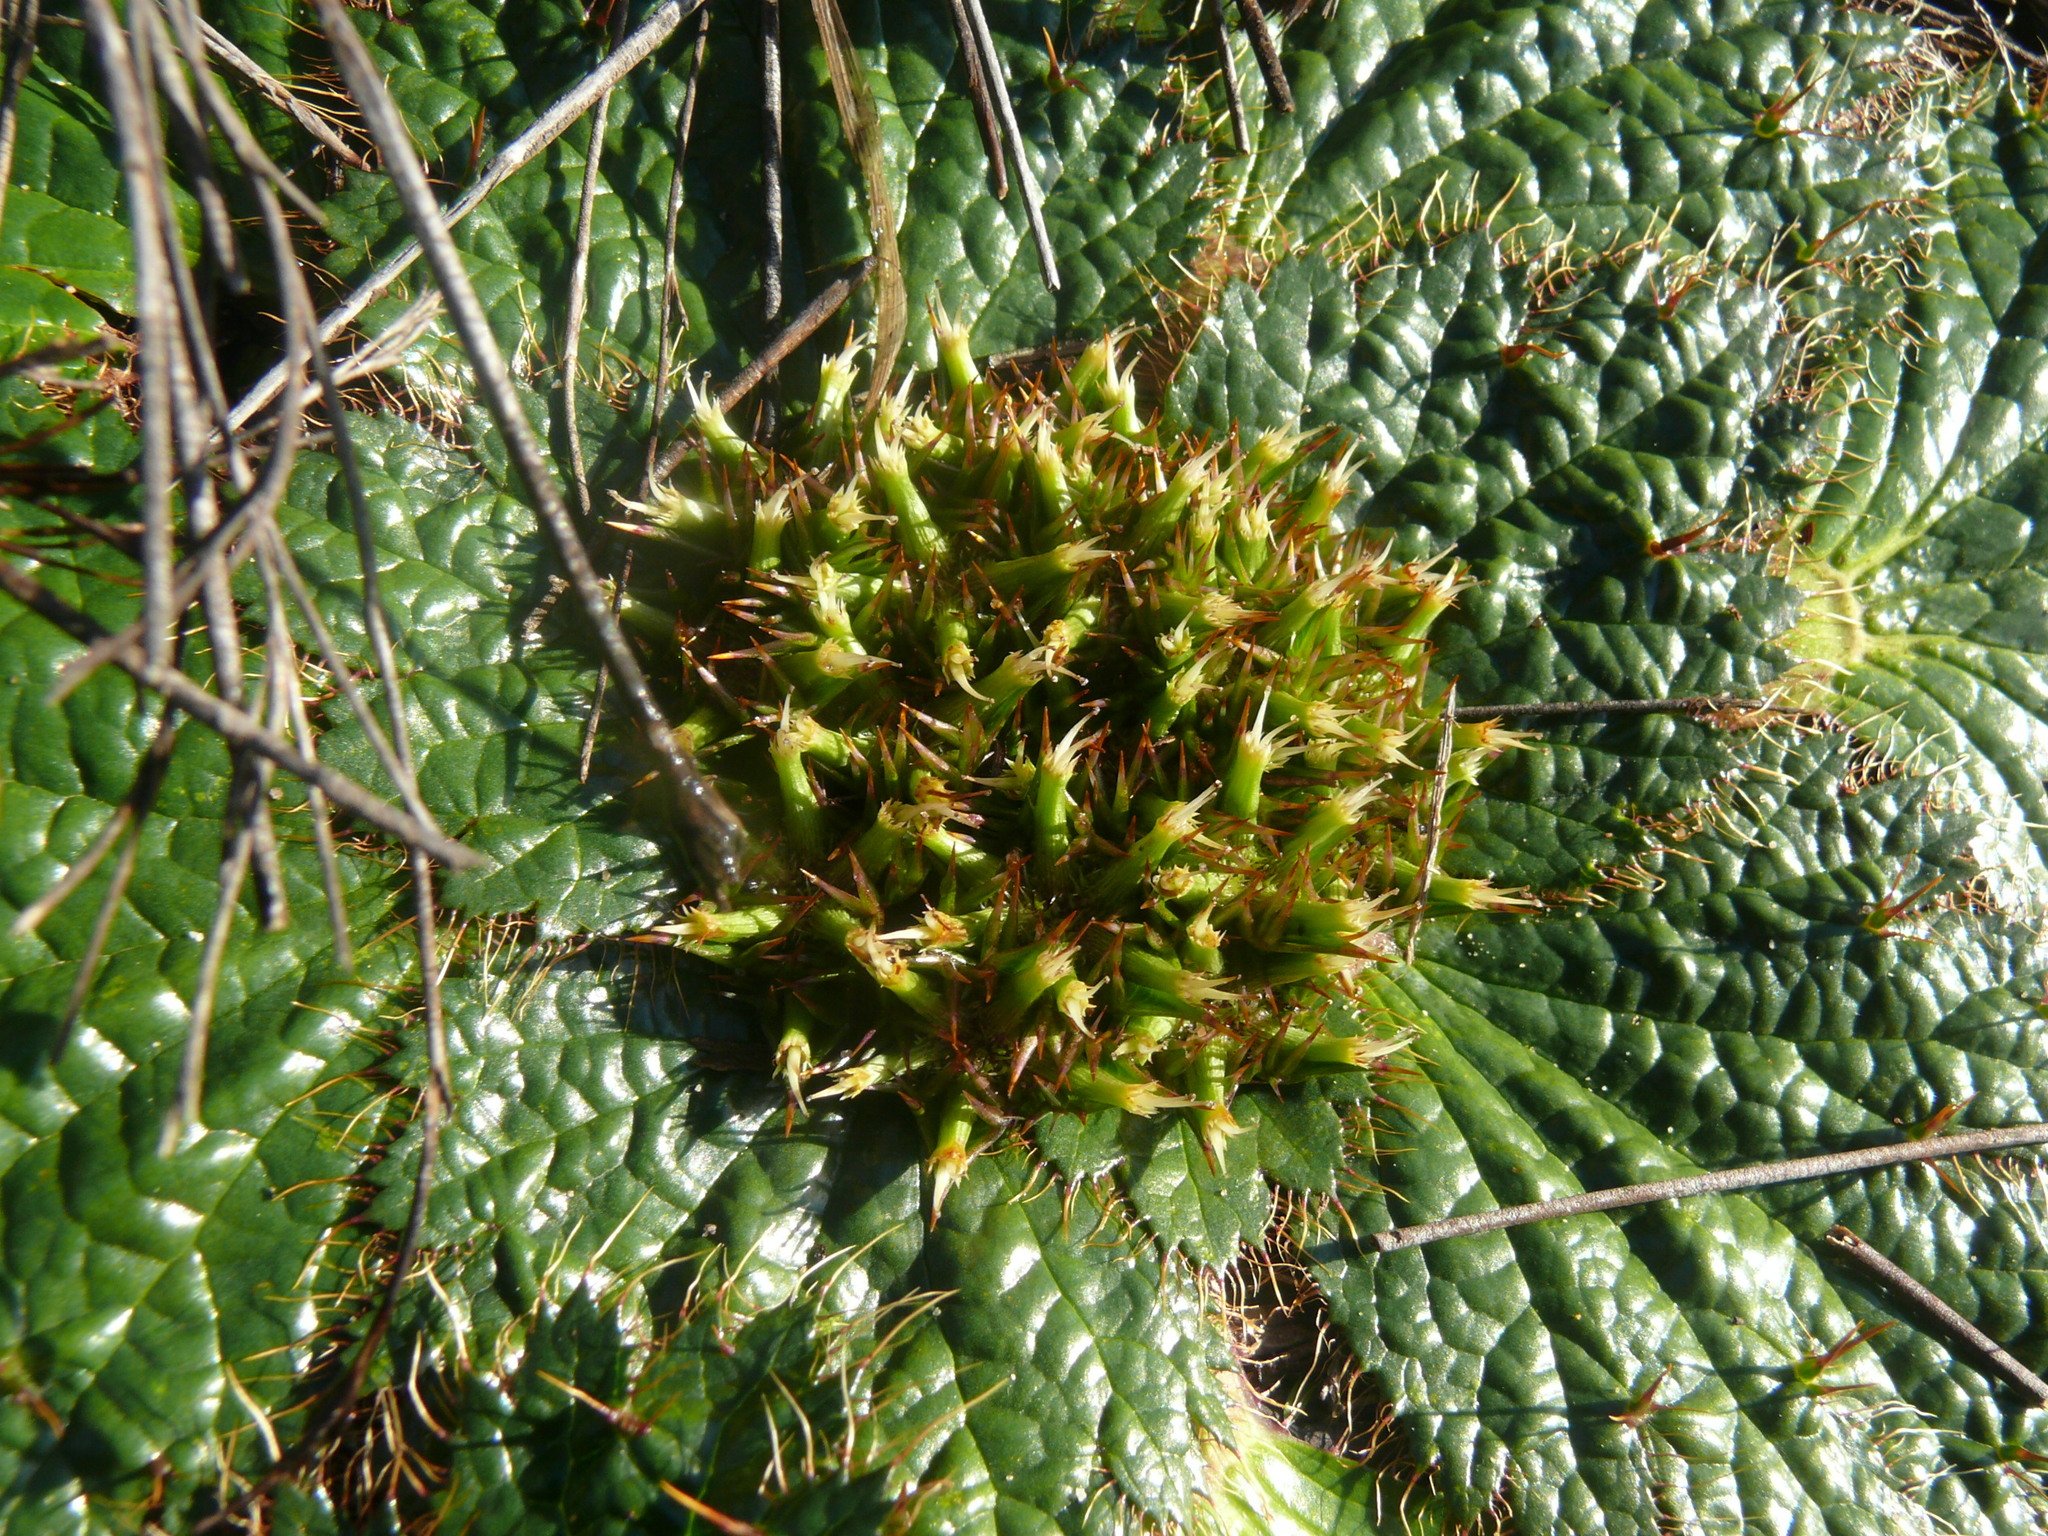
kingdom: Plantae
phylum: Tracheophyta
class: Magnoliopsida
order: Apiales
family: Apiaceae
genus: Arctopus
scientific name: Arctopus echinatus
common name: Platdoring
